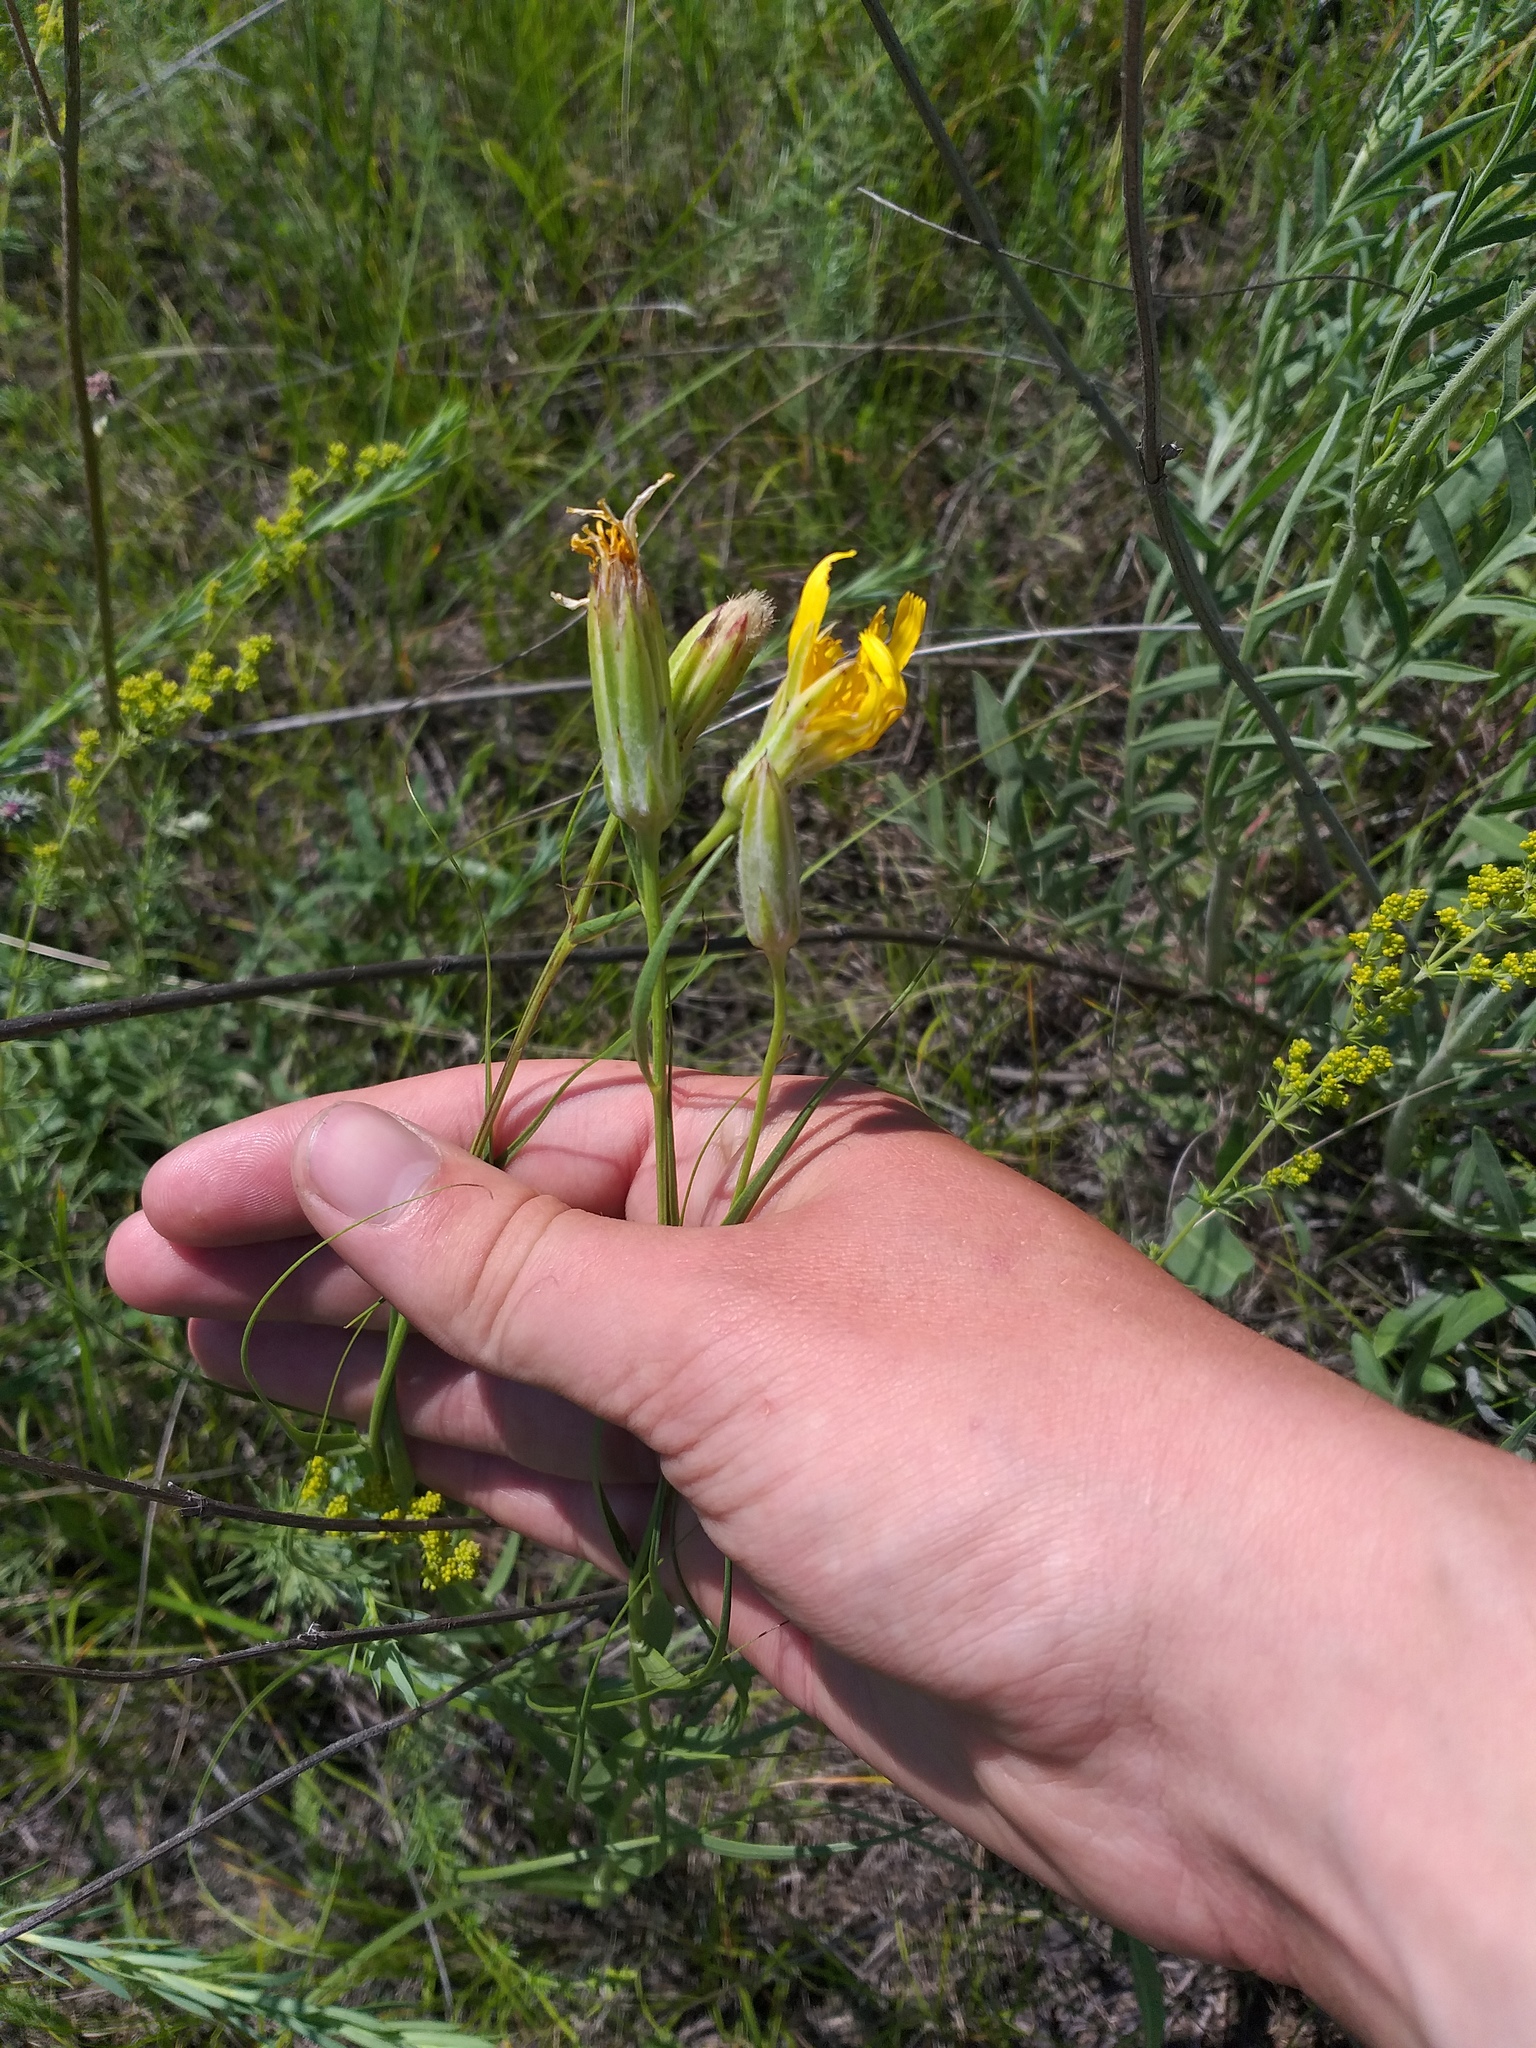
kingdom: Plantae
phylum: Tracheophyta
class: Magnoliopsida
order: Asterales
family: Asteraceae
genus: Gelasia
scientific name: Gelasia ensifolia
